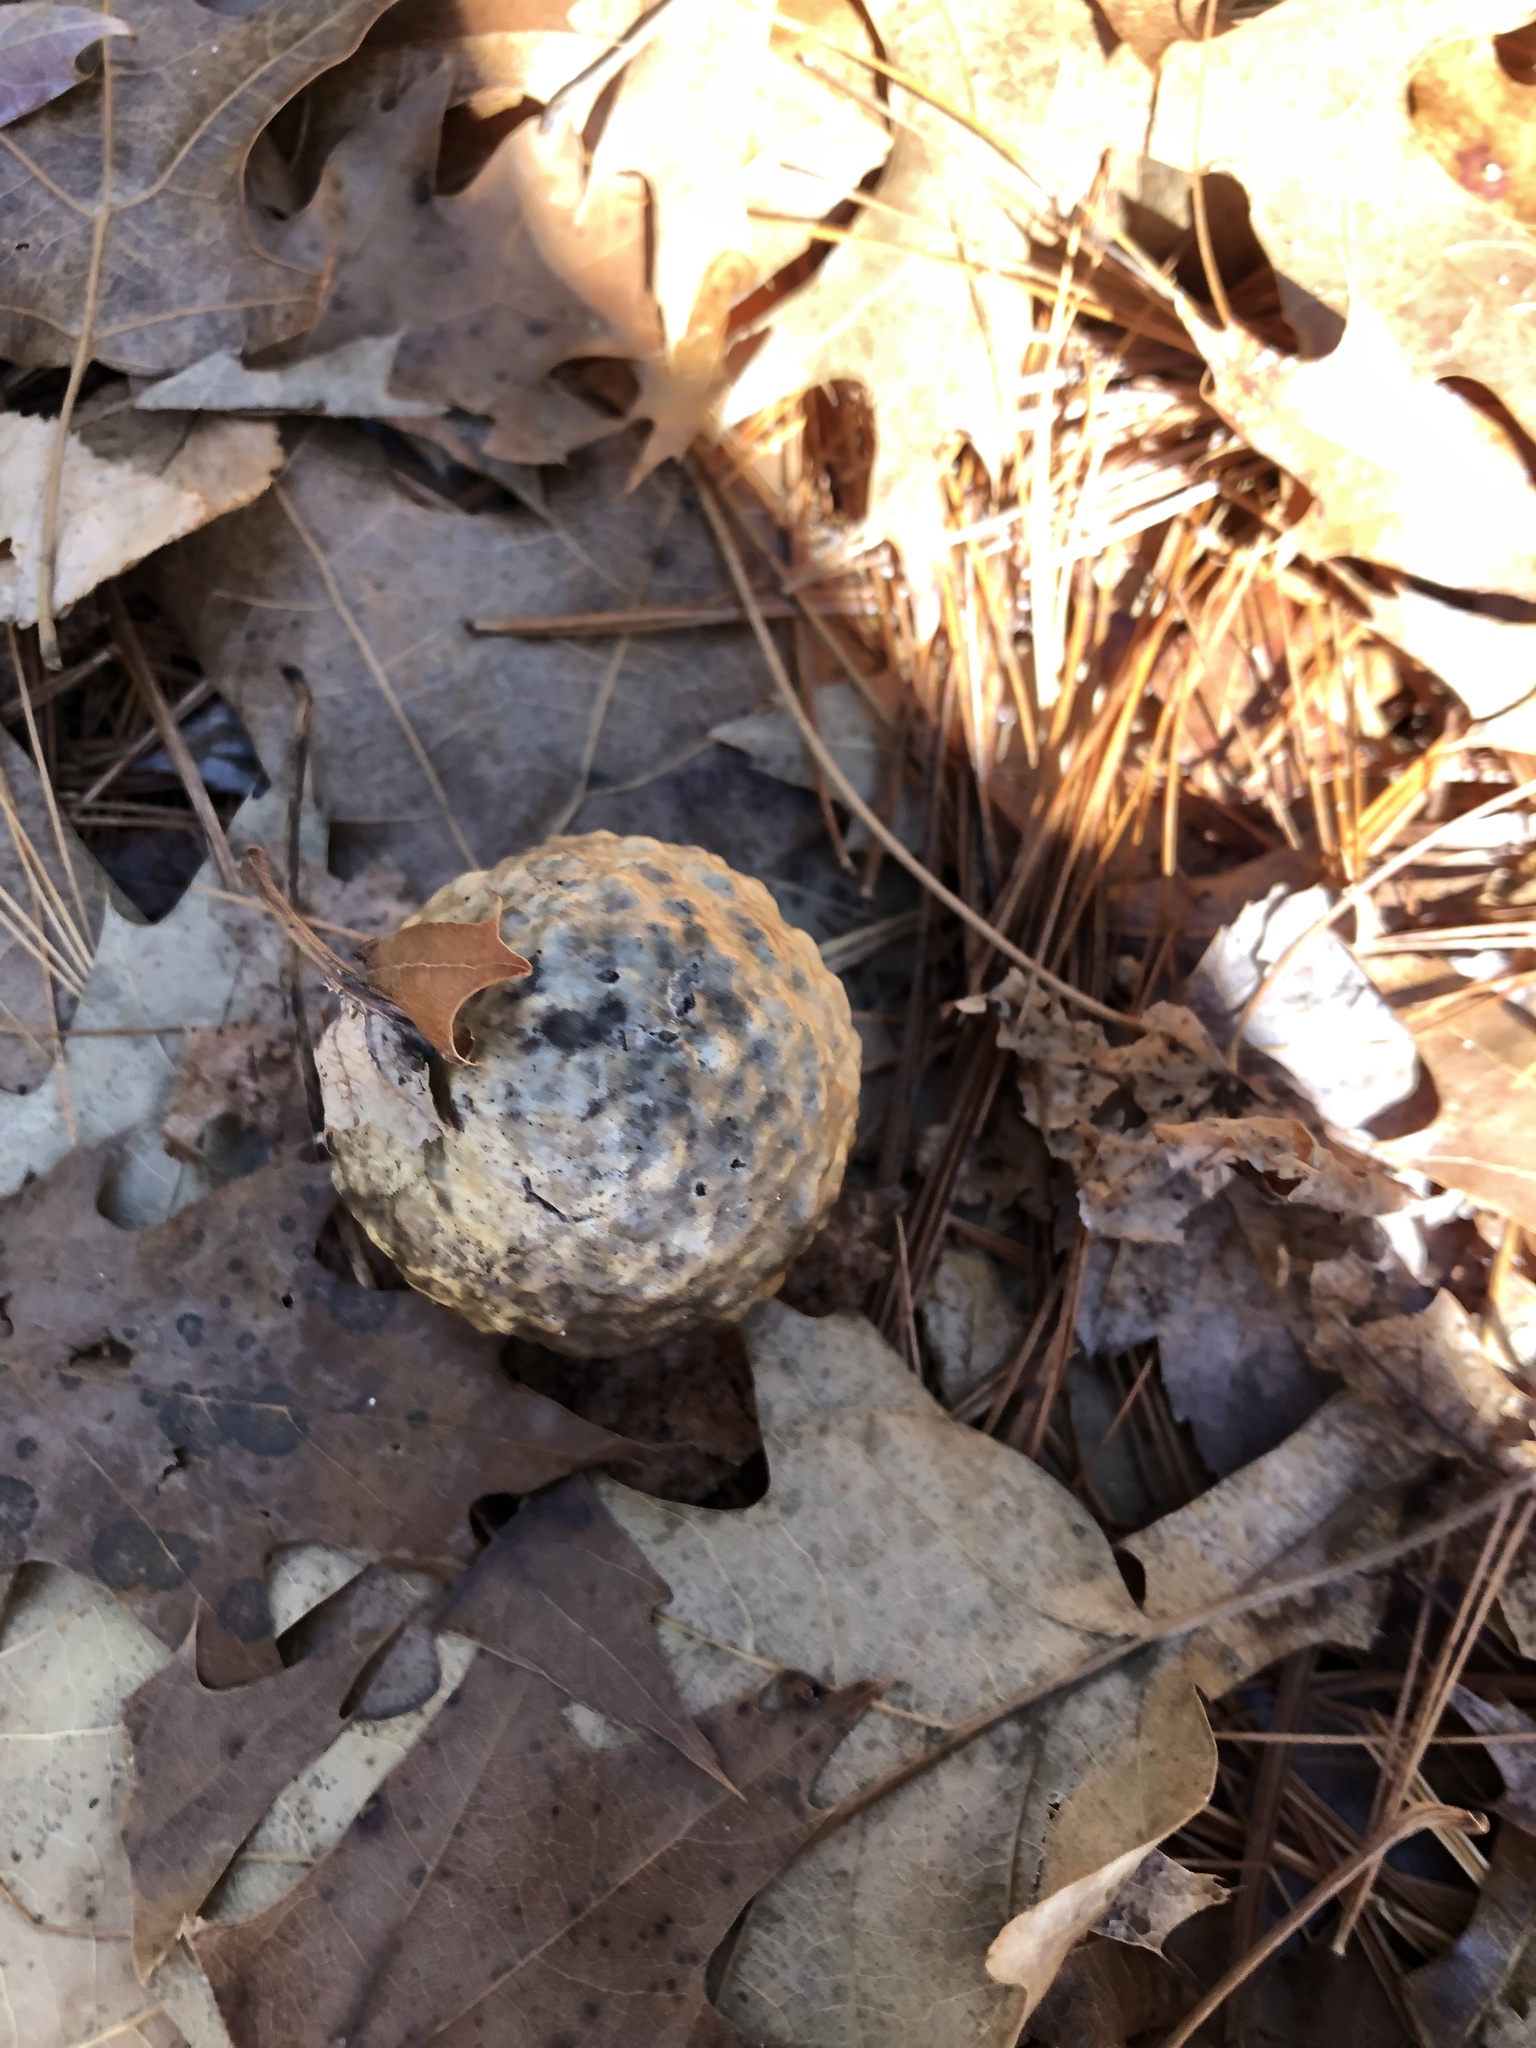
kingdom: Animalia
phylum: Arthropoda
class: Insecta
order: Hymenoptera
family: Cynipidae
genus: Amphibolips
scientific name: Amphibolips
